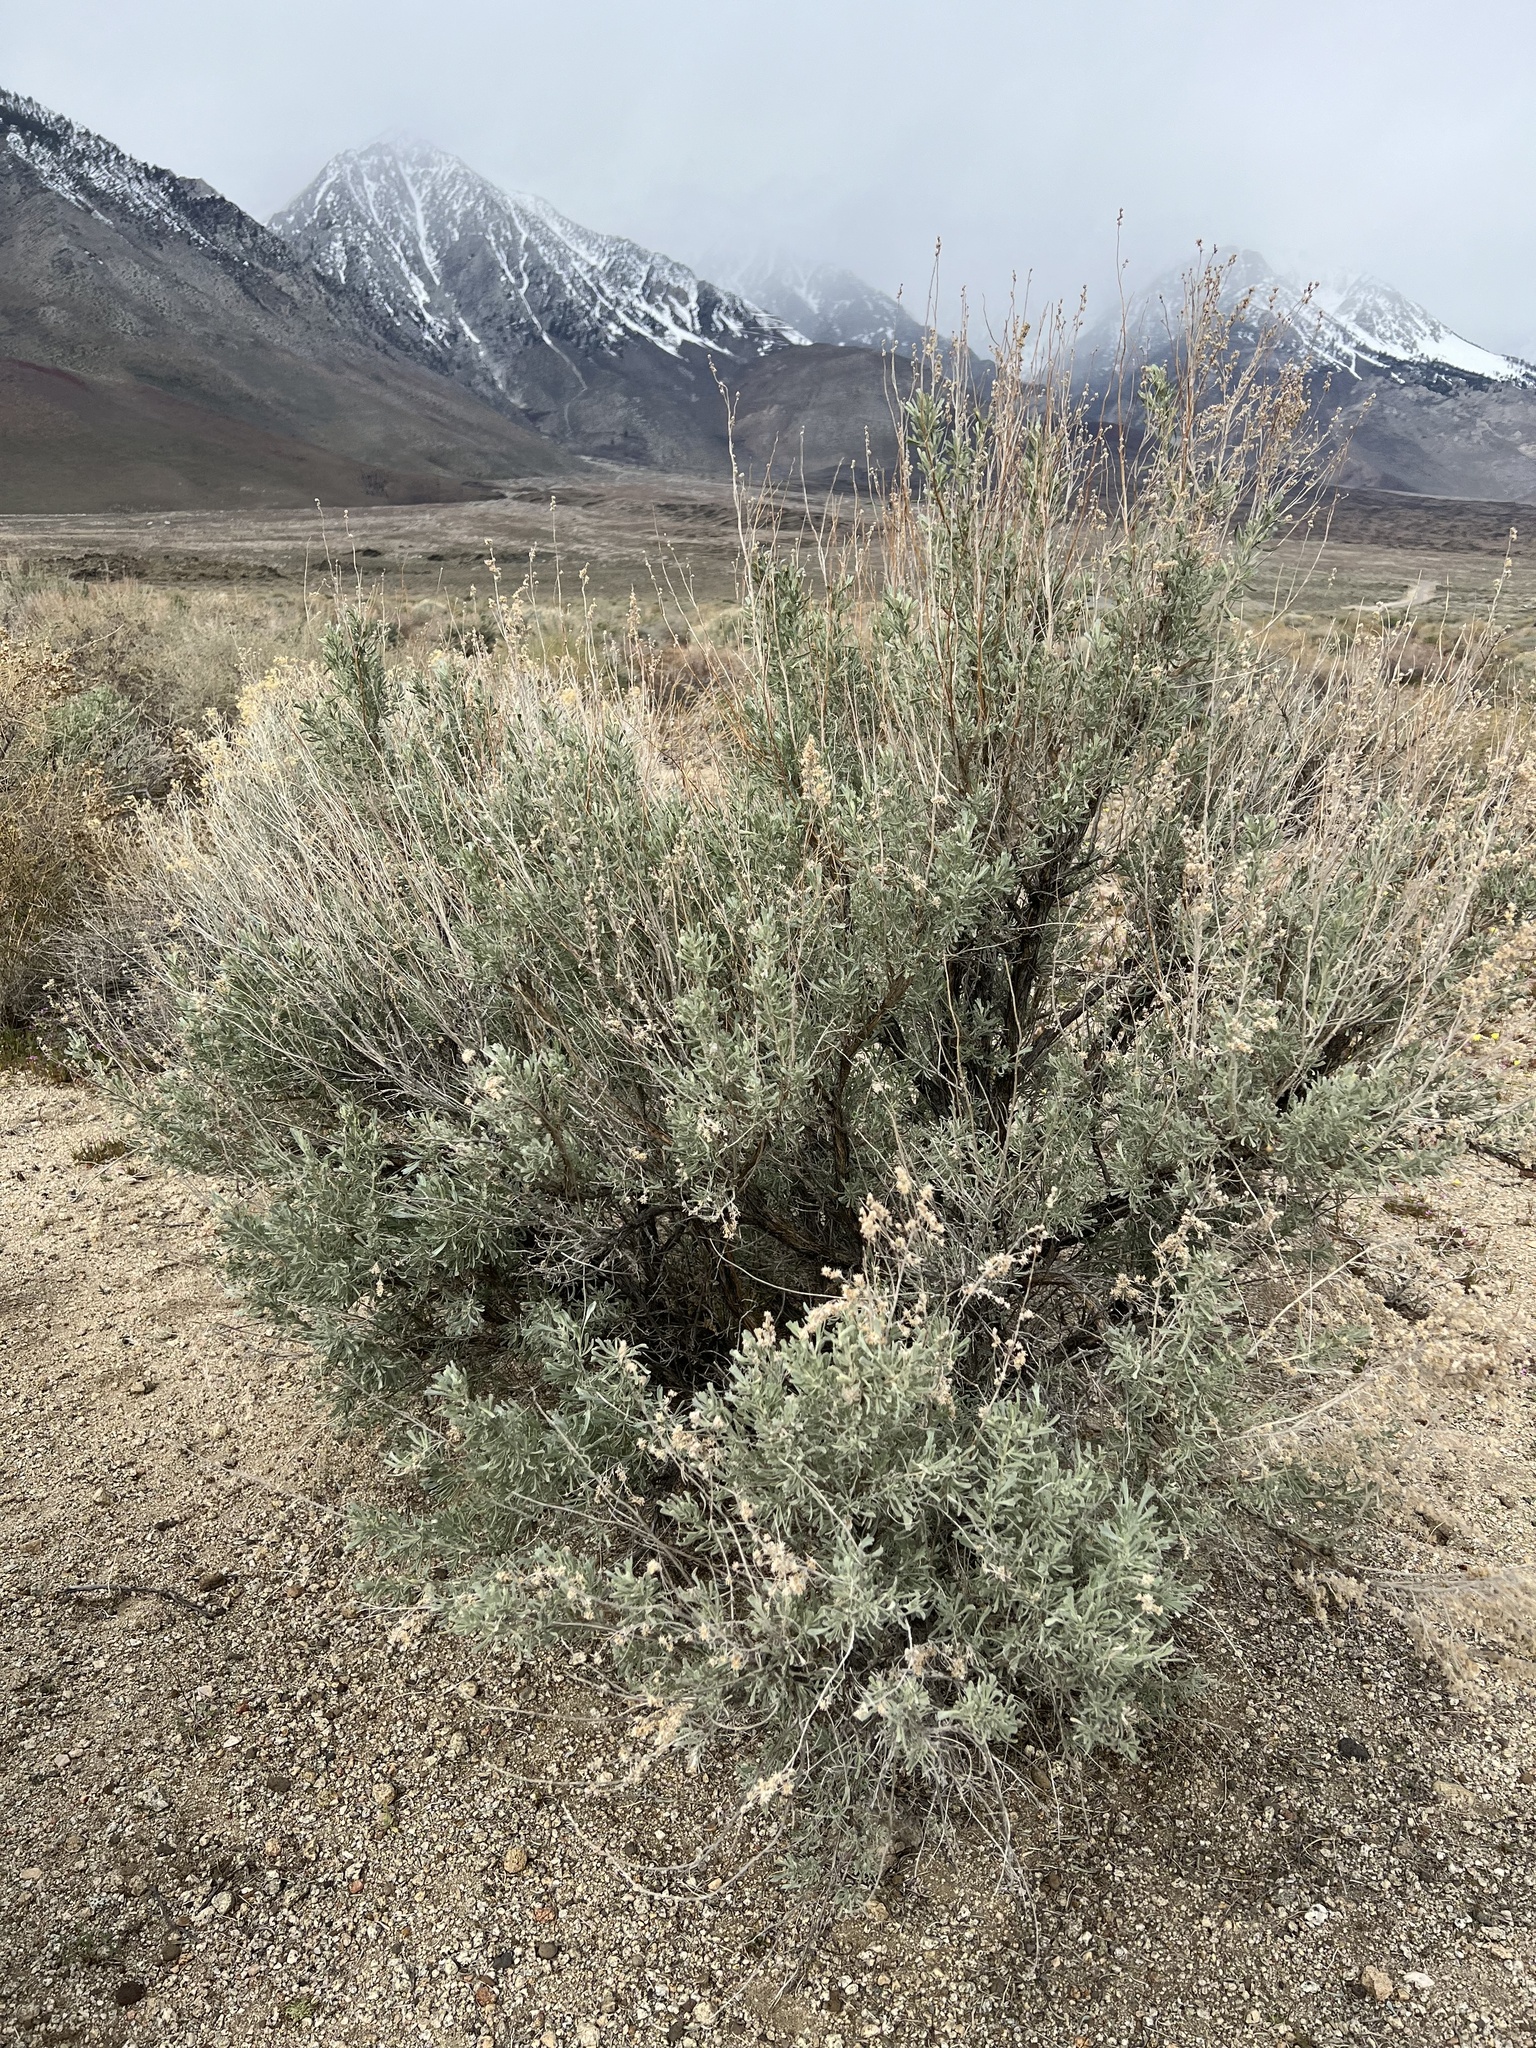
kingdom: Plantae
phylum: Tracheophyta
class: Magnoliopsida
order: Asterales
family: Asteraceae
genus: Artemisia
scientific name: Artemisia tridentata
